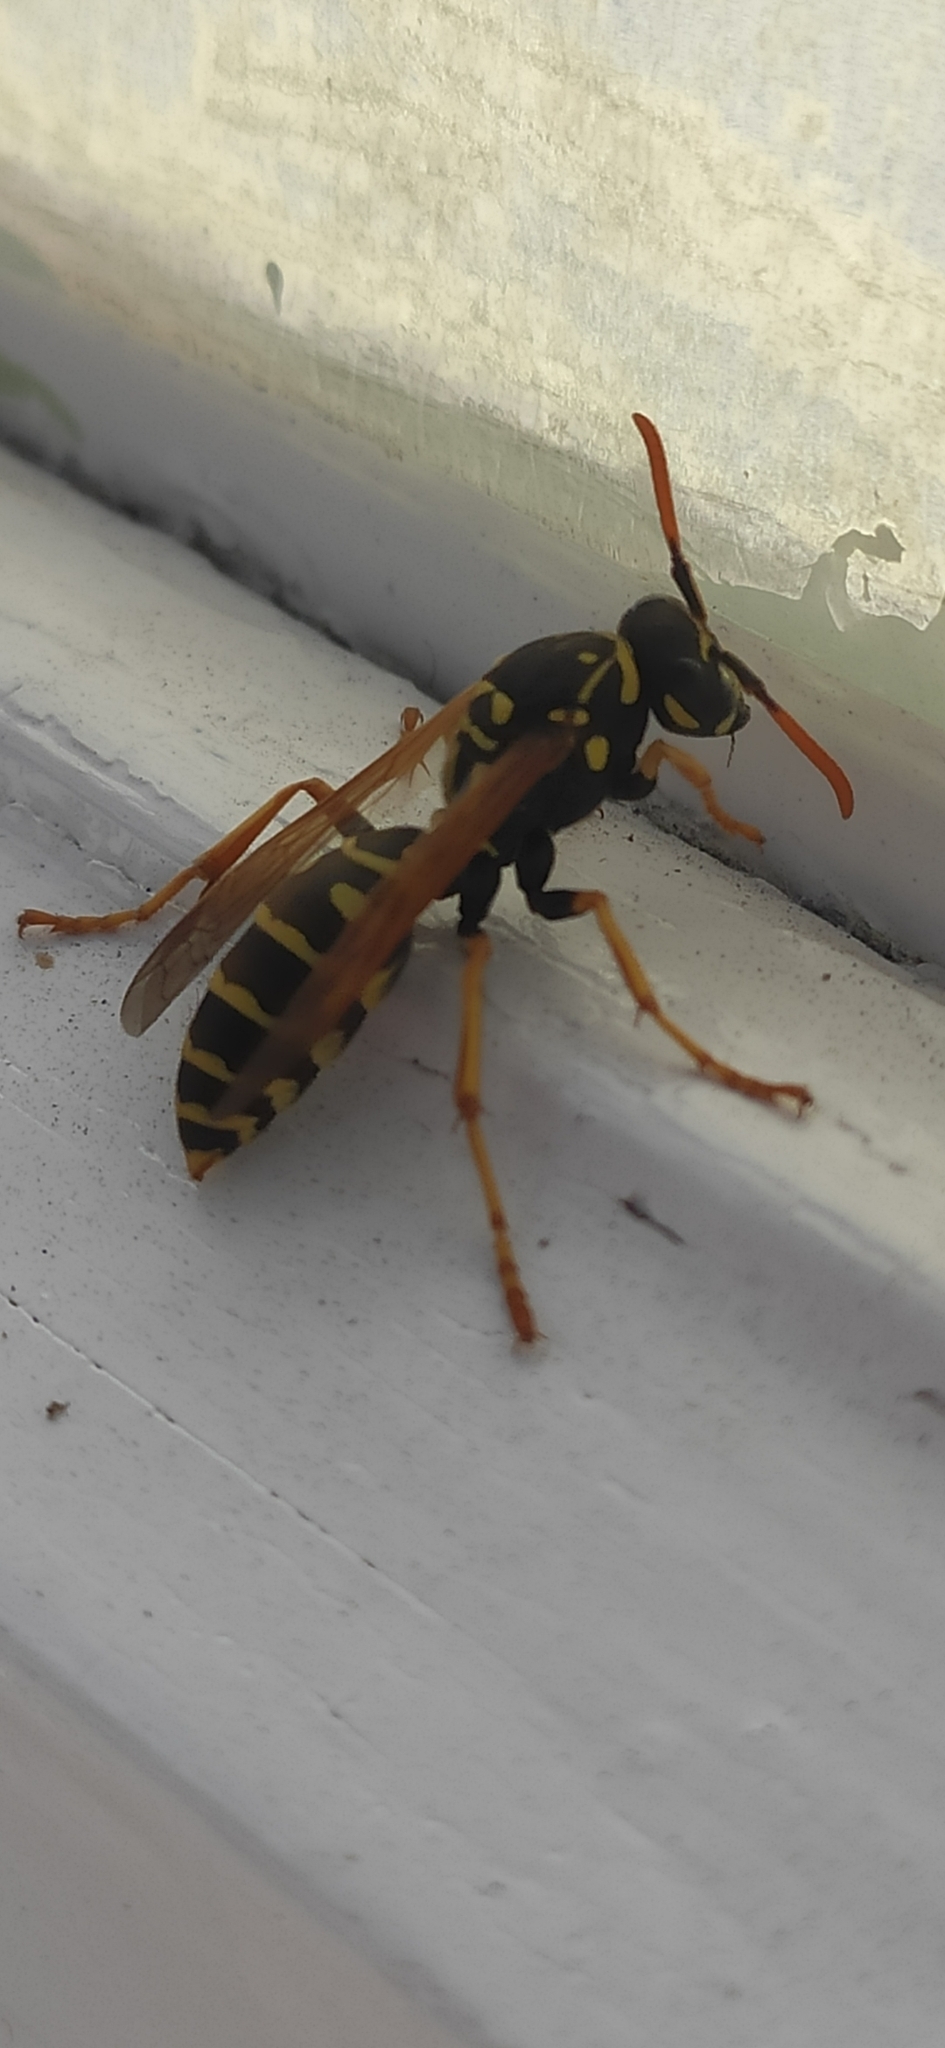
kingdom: Animalia
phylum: Arthropoda
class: Insecta
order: Hymenoptera
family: Eumenidae
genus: Polistes
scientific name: Polistes dominula
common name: Paper wasp
